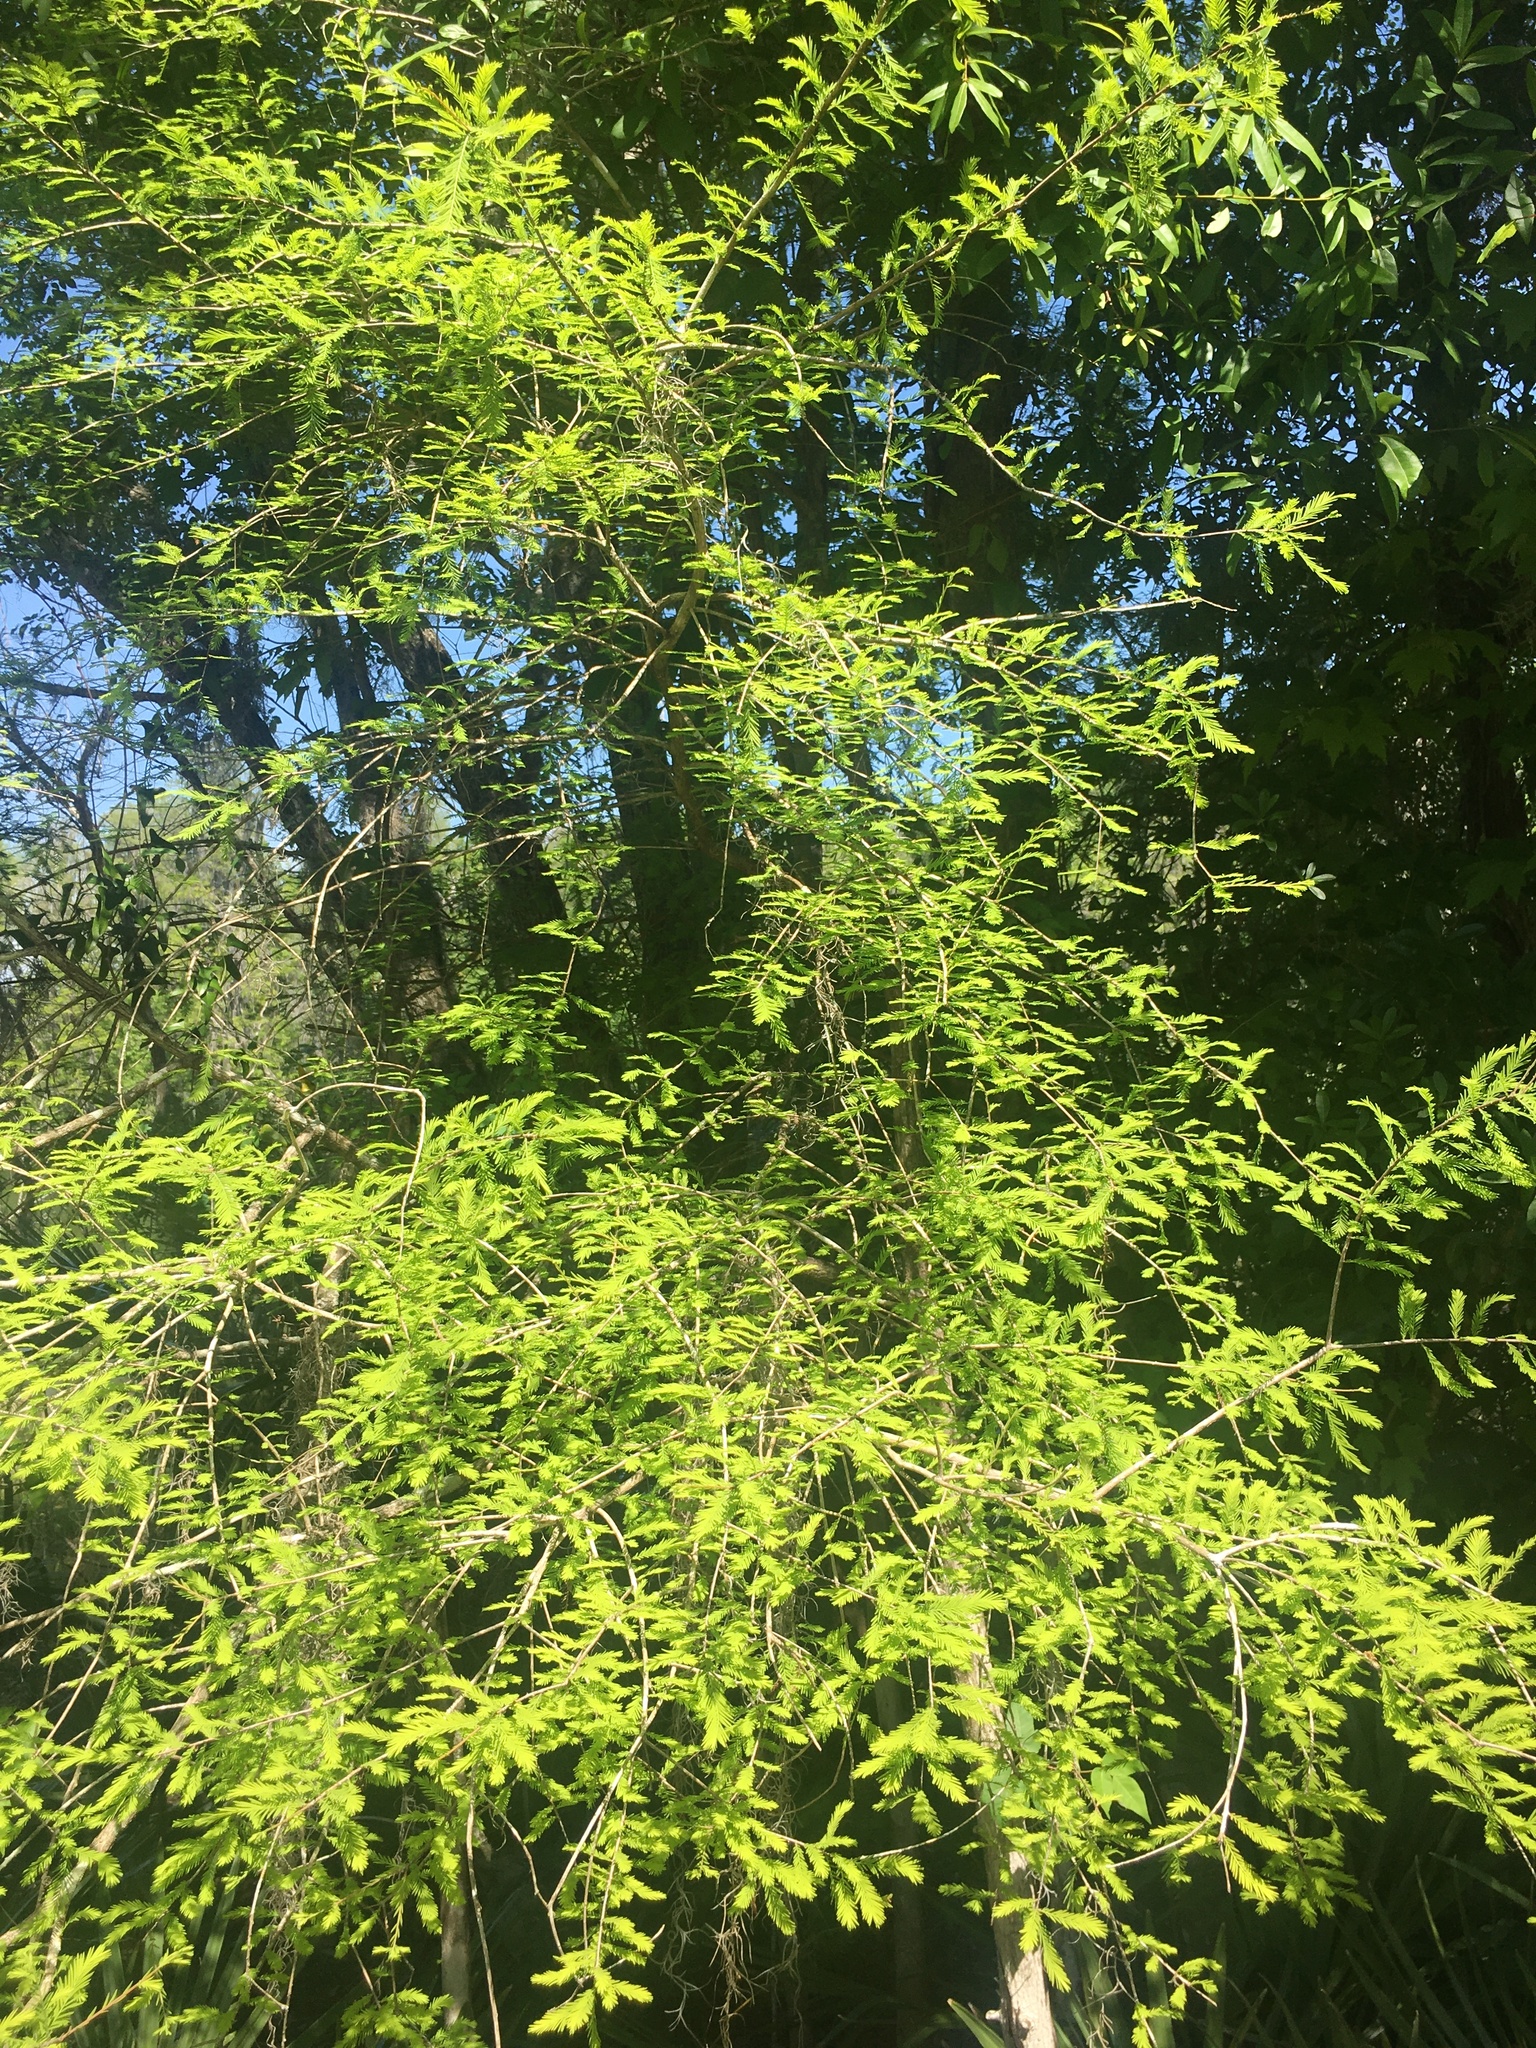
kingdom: Plantae
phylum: Tracheophyta
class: Pinopsida
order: Pinales
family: Cupressaceae
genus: Taxodium
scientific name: Taxodium distichum
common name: Bald cypress
